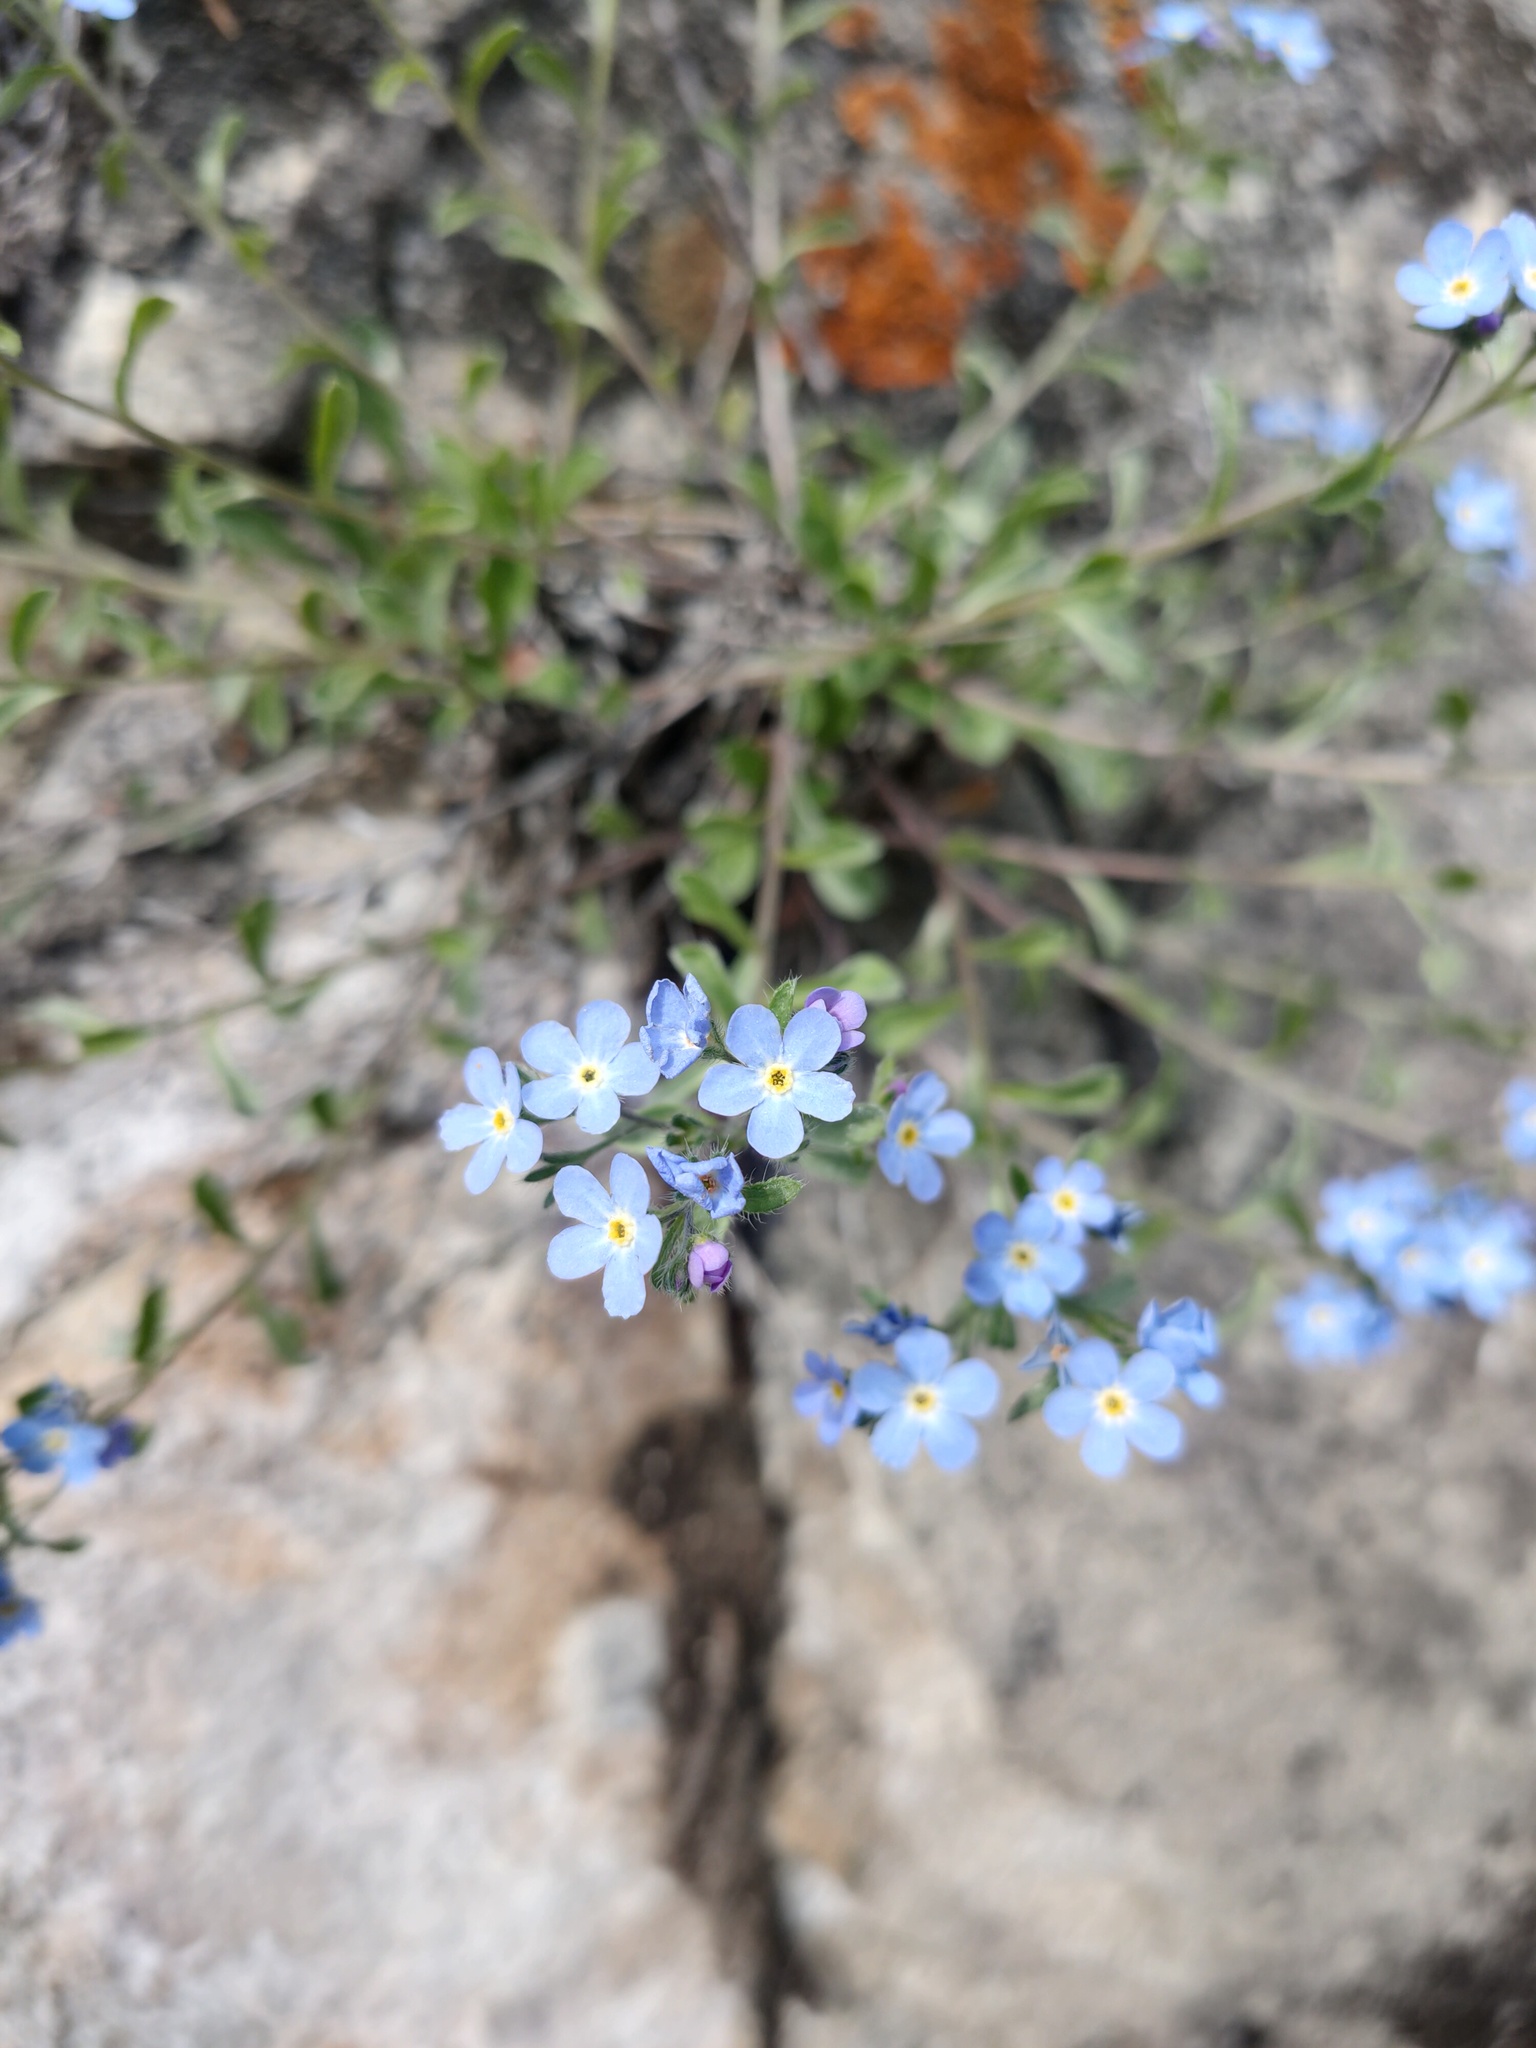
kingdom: Plantae
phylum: Tracheophyta
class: Magnoliopsida
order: Boraginales
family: Boraginaceae
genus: Eritrichium
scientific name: Eritrichium rupestre
